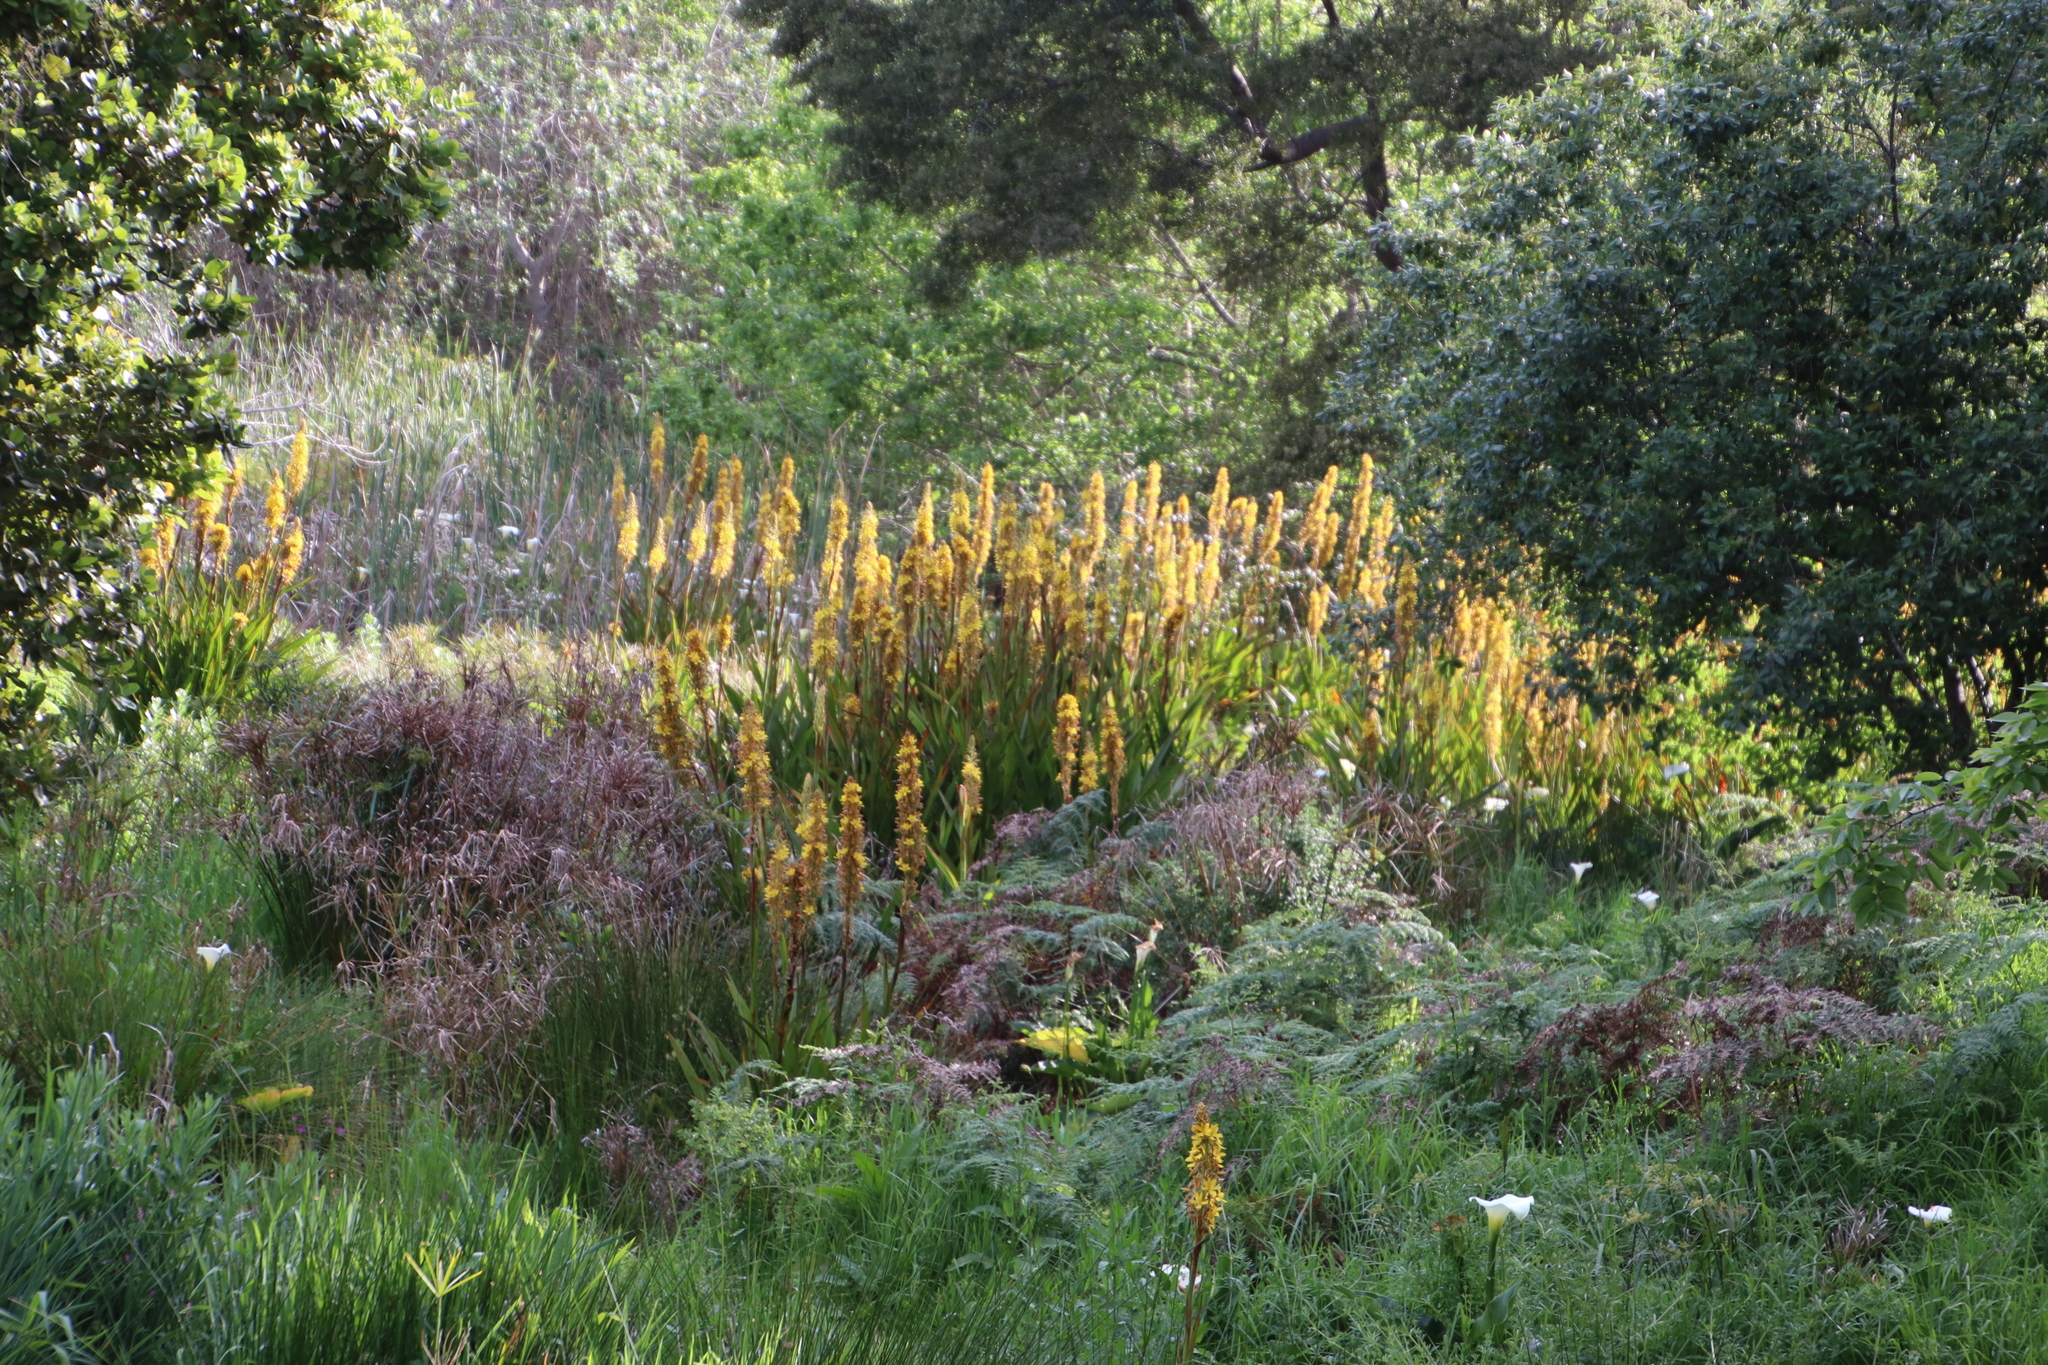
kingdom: Plantae
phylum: Tracheophyta
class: Liliopsida
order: Commelinales
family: Haemodoraceae
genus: Wachendorfia
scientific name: Wachendorfia thyrsiflora
